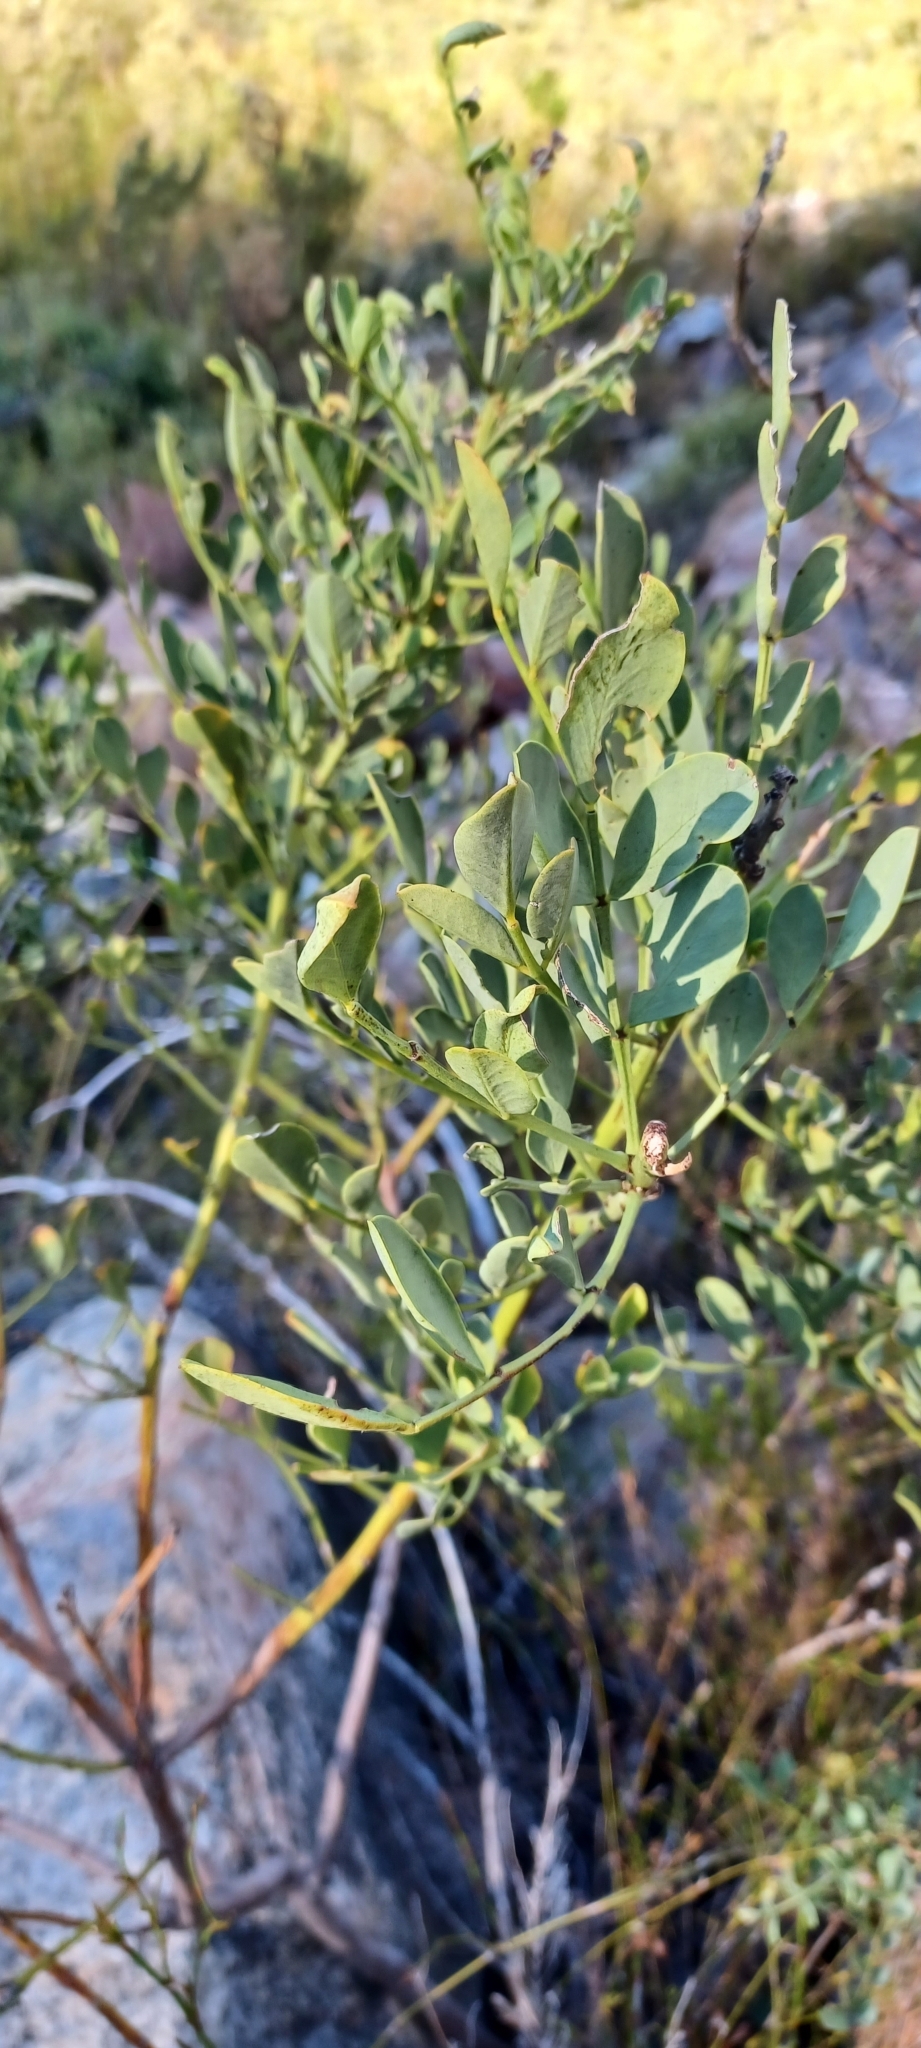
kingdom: Plantae
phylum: Tracheophyta
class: Magnoliopsida
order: Fabales
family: Fabaceae
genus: Indigofera
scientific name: Indigofera frutescens
